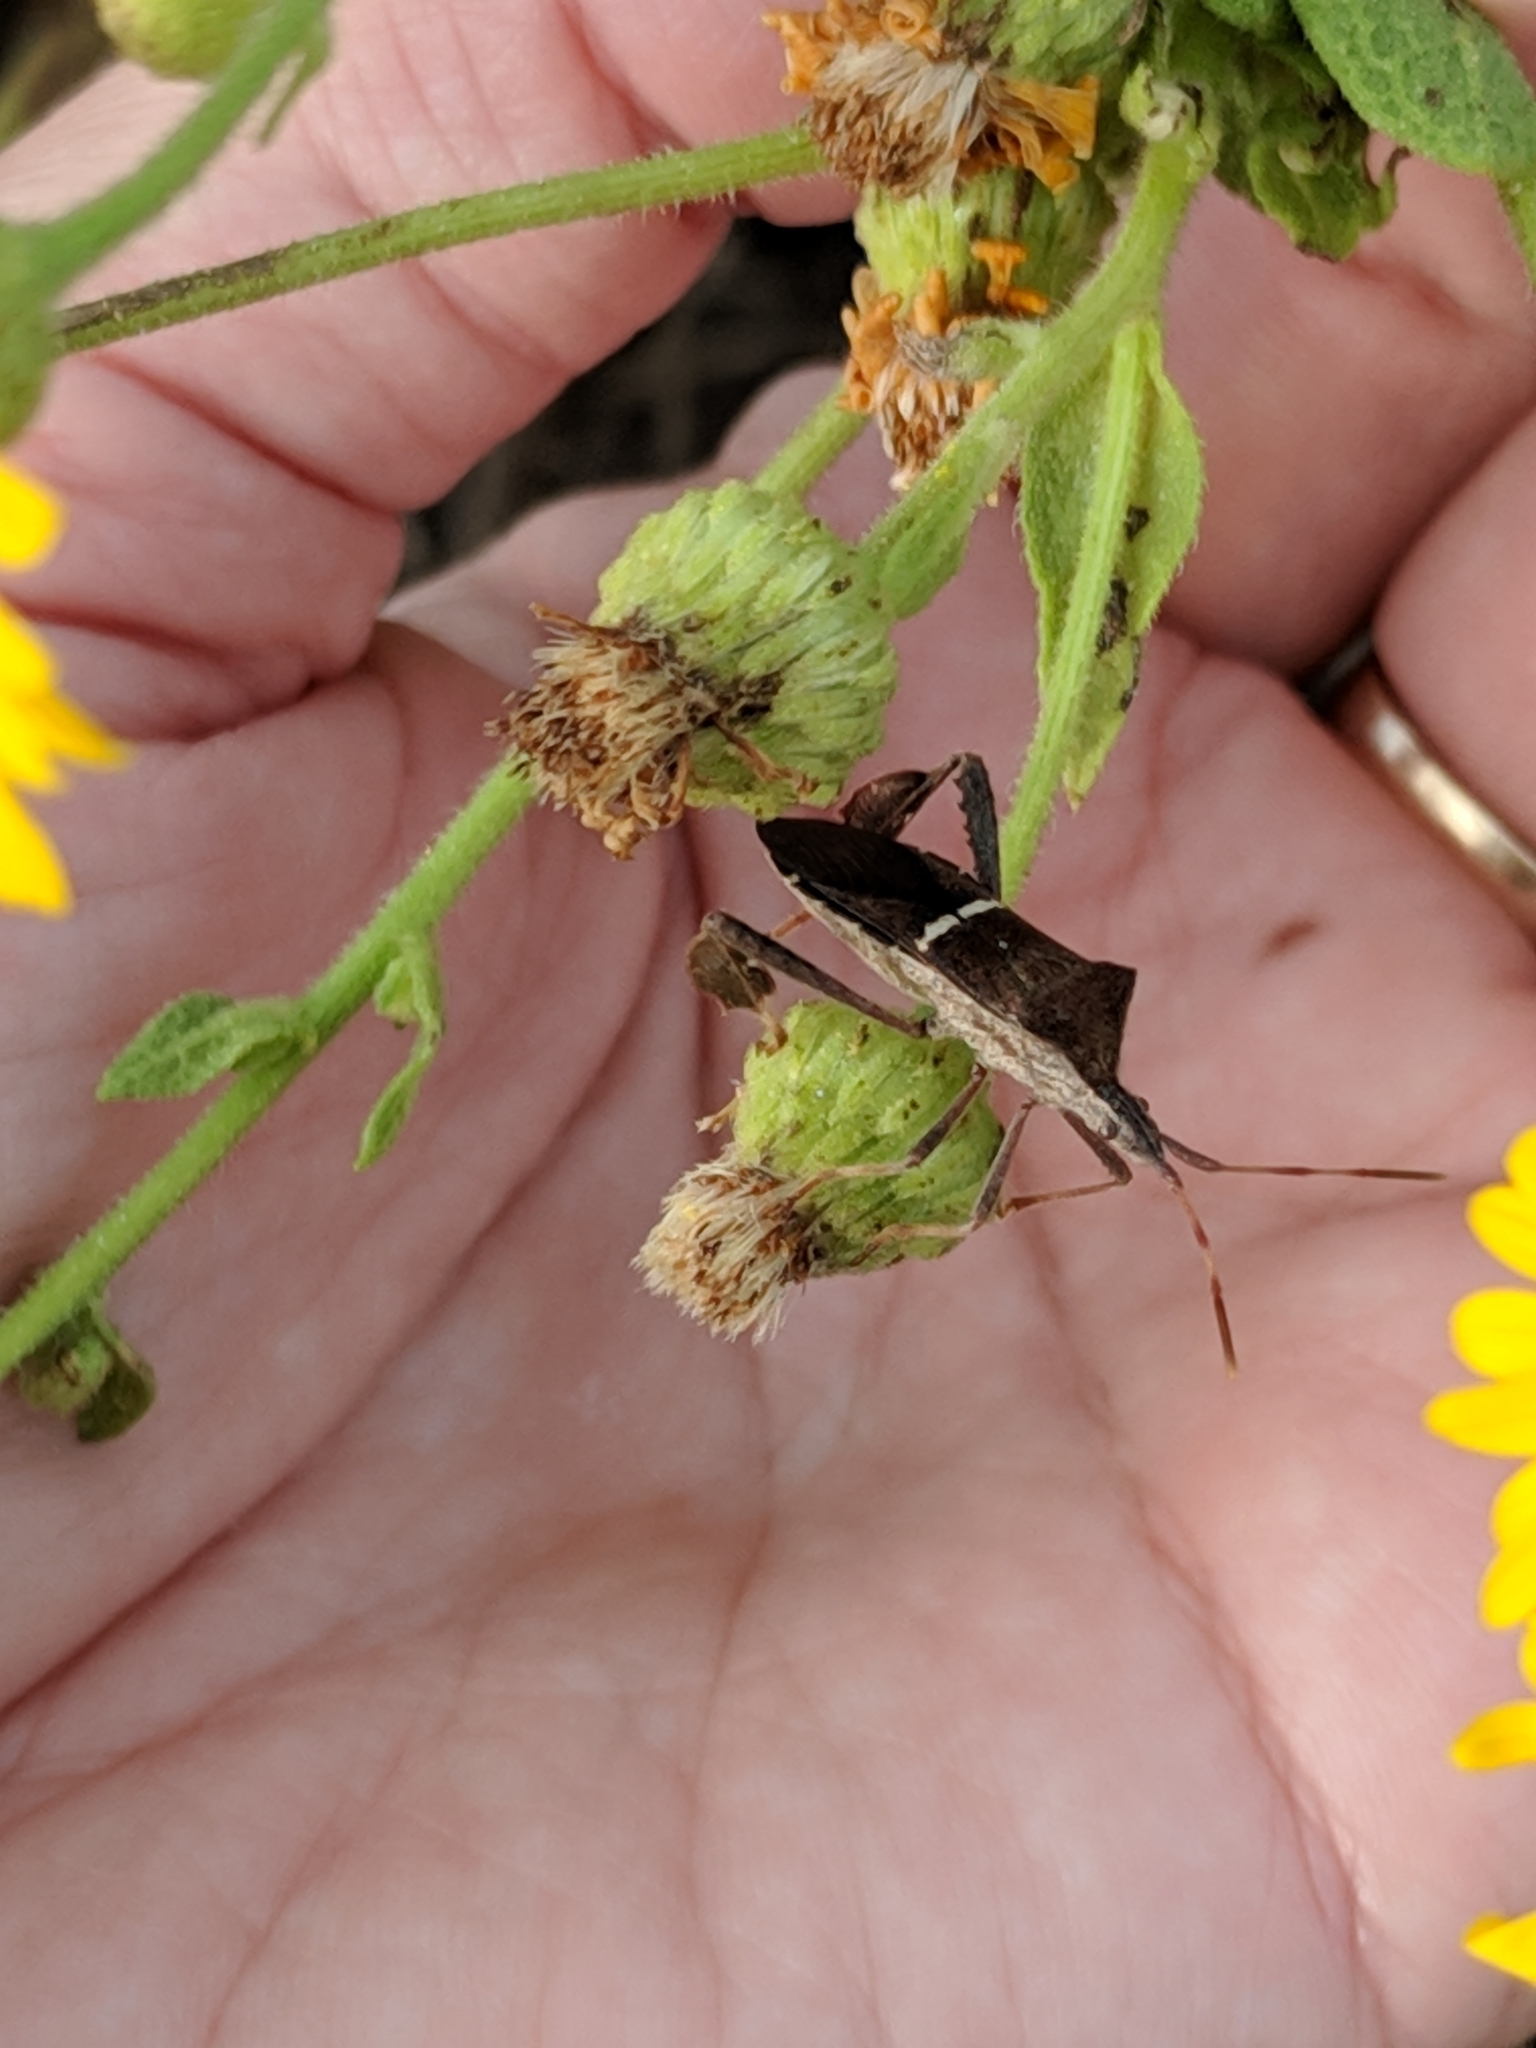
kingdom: Animalia
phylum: Arthropoda
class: Insecta
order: Hemiptera
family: Coreidae
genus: Leptoglossus
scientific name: Leptoglossus phyllopus
